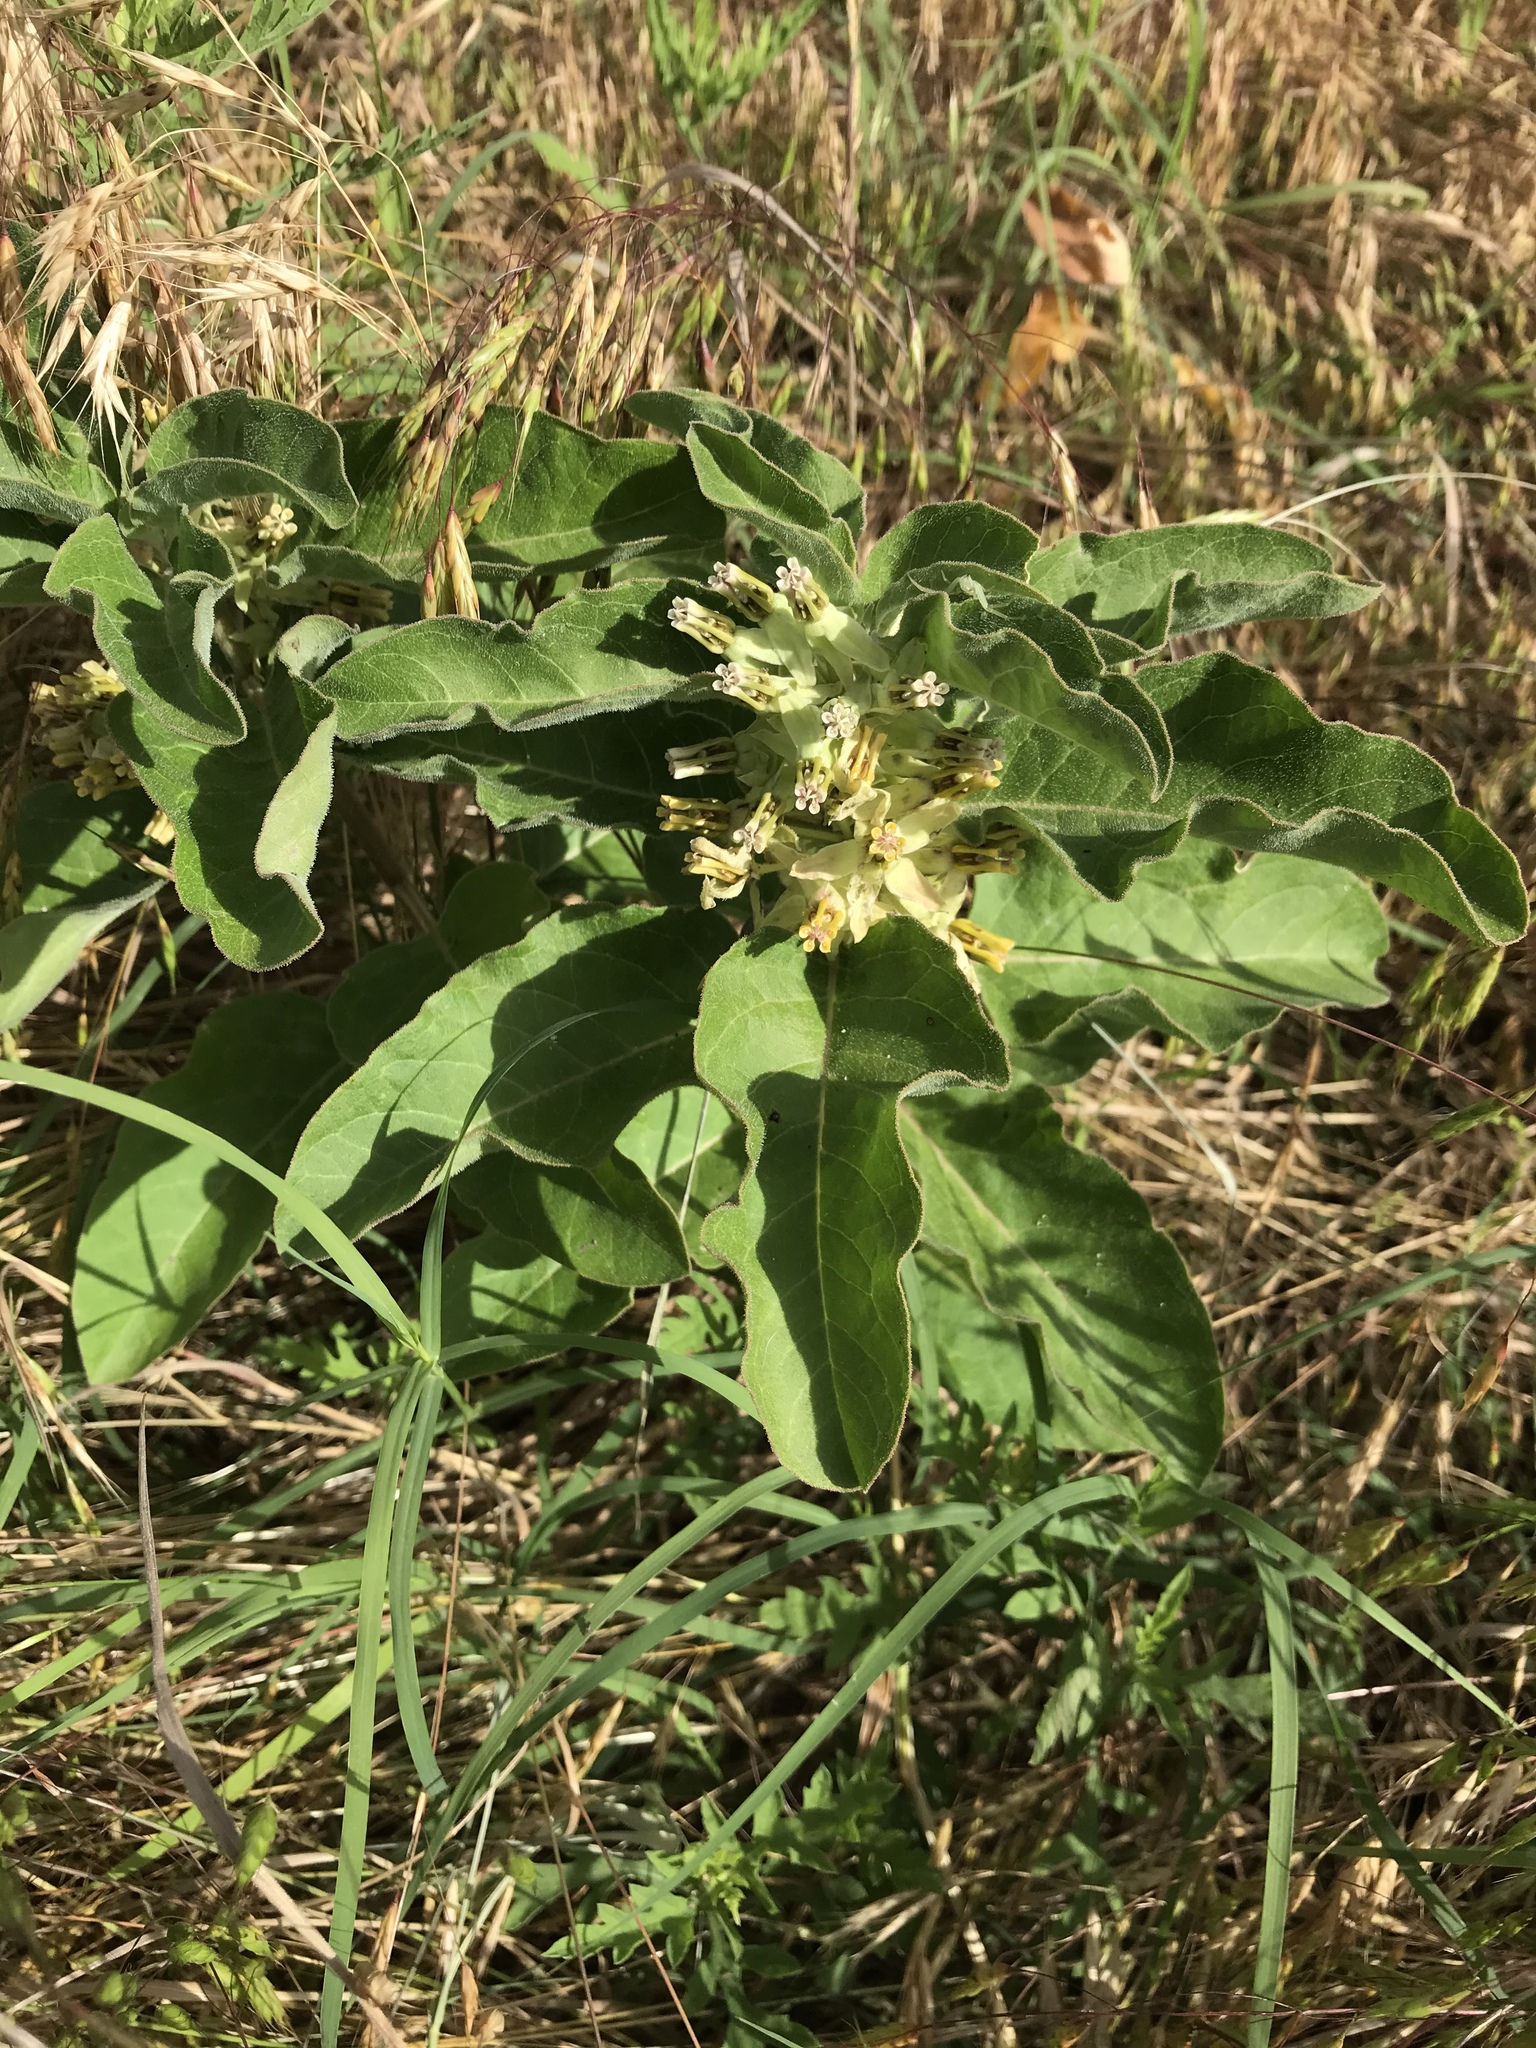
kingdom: Plantae
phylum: Tracheophyta
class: Magnoliopsida
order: Gentianales
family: Apocynaceae
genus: Asclepias
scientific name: Asclepias oenotheroides
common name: Zizotes milkweed
